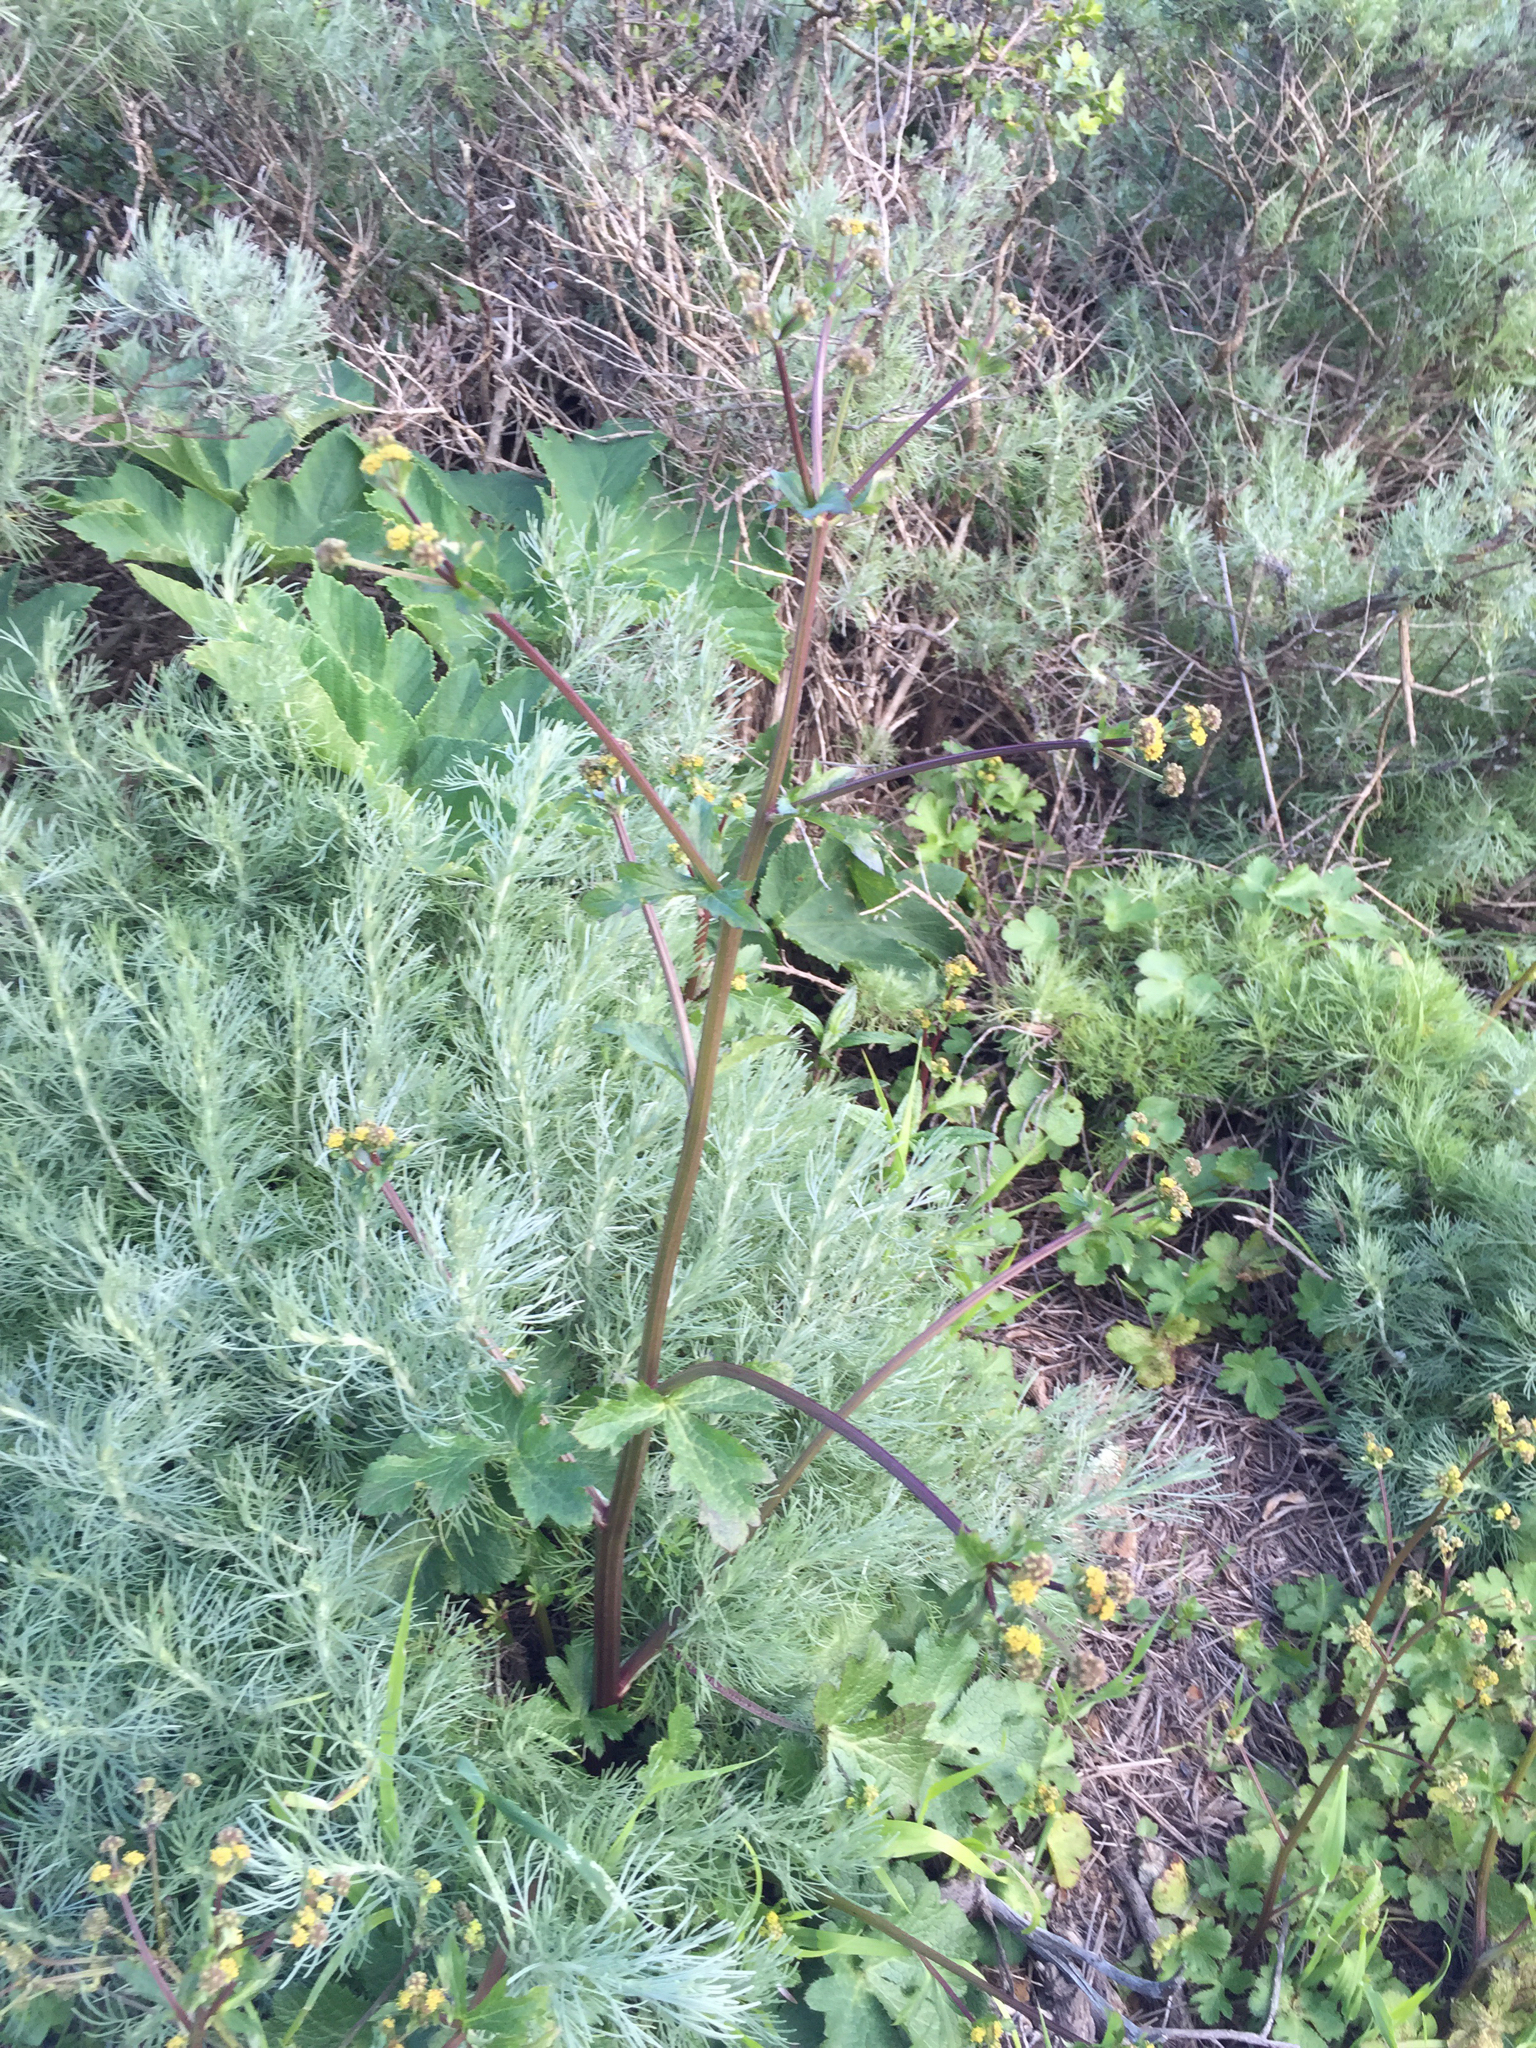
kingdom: Plantae
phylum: Tracheophyta
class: Magnoliopsida
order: Apiales
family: Apiaceae
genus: Sanicula
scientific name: Sanicula crassicaulis
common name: Western snakeroot
